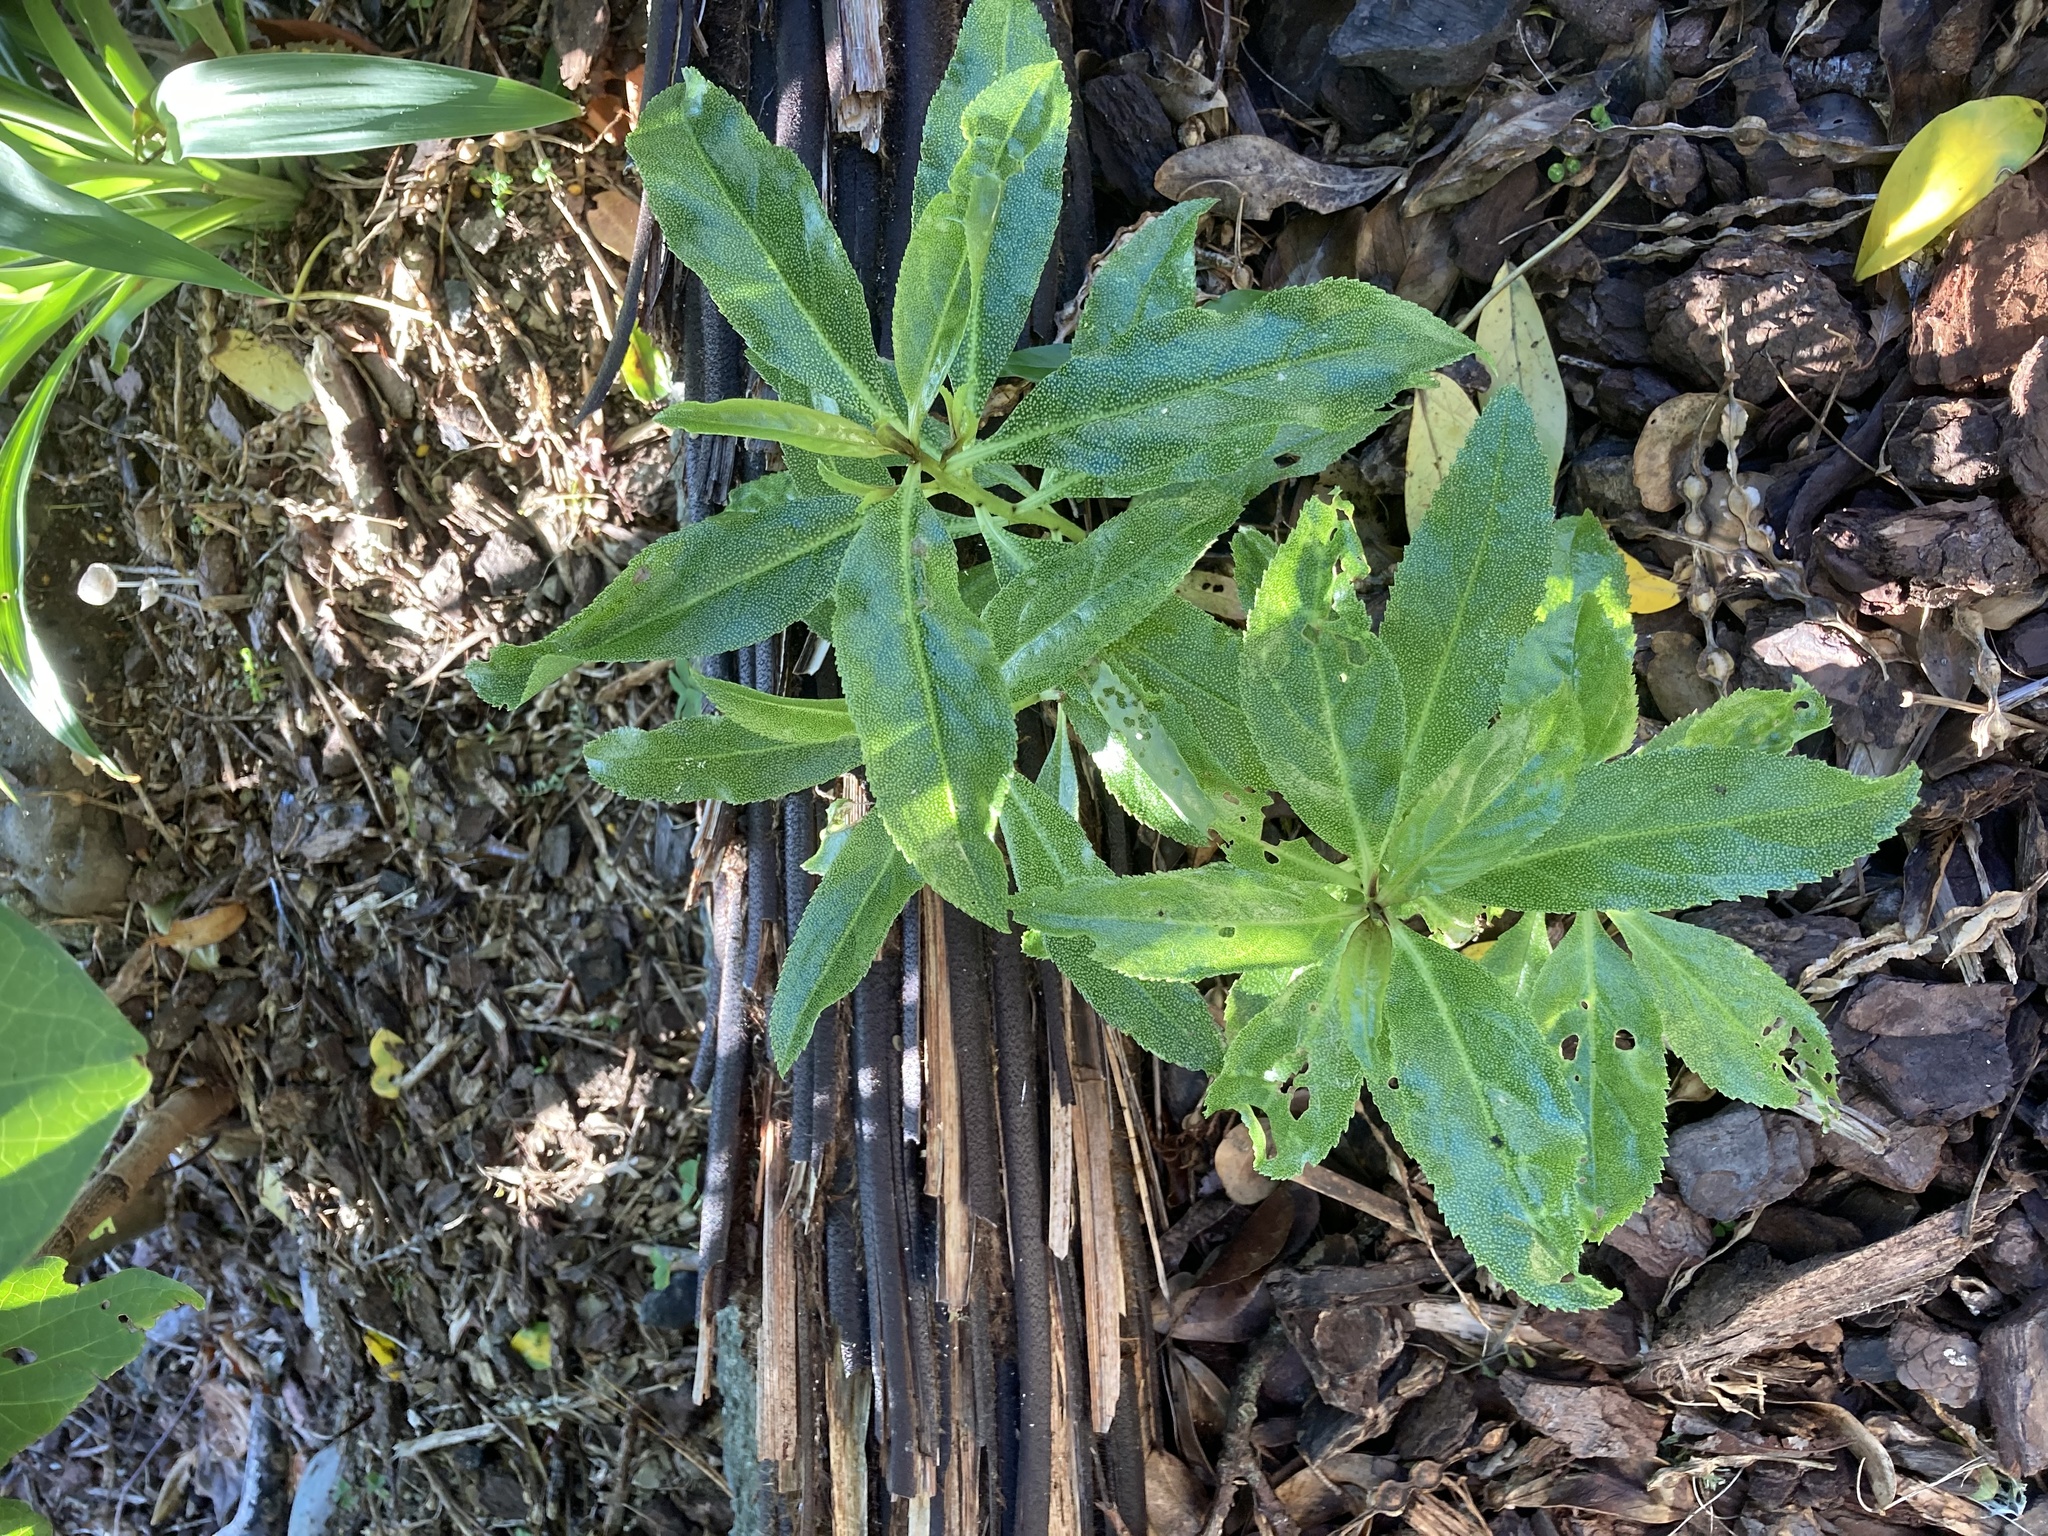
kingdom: Plantae
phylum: Tracheophyta
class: Magnoliopsida
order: Lamiales
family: Scrophulariaceae
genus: Myoporum
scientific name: Myoporum laetum
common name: Ngaio tree
